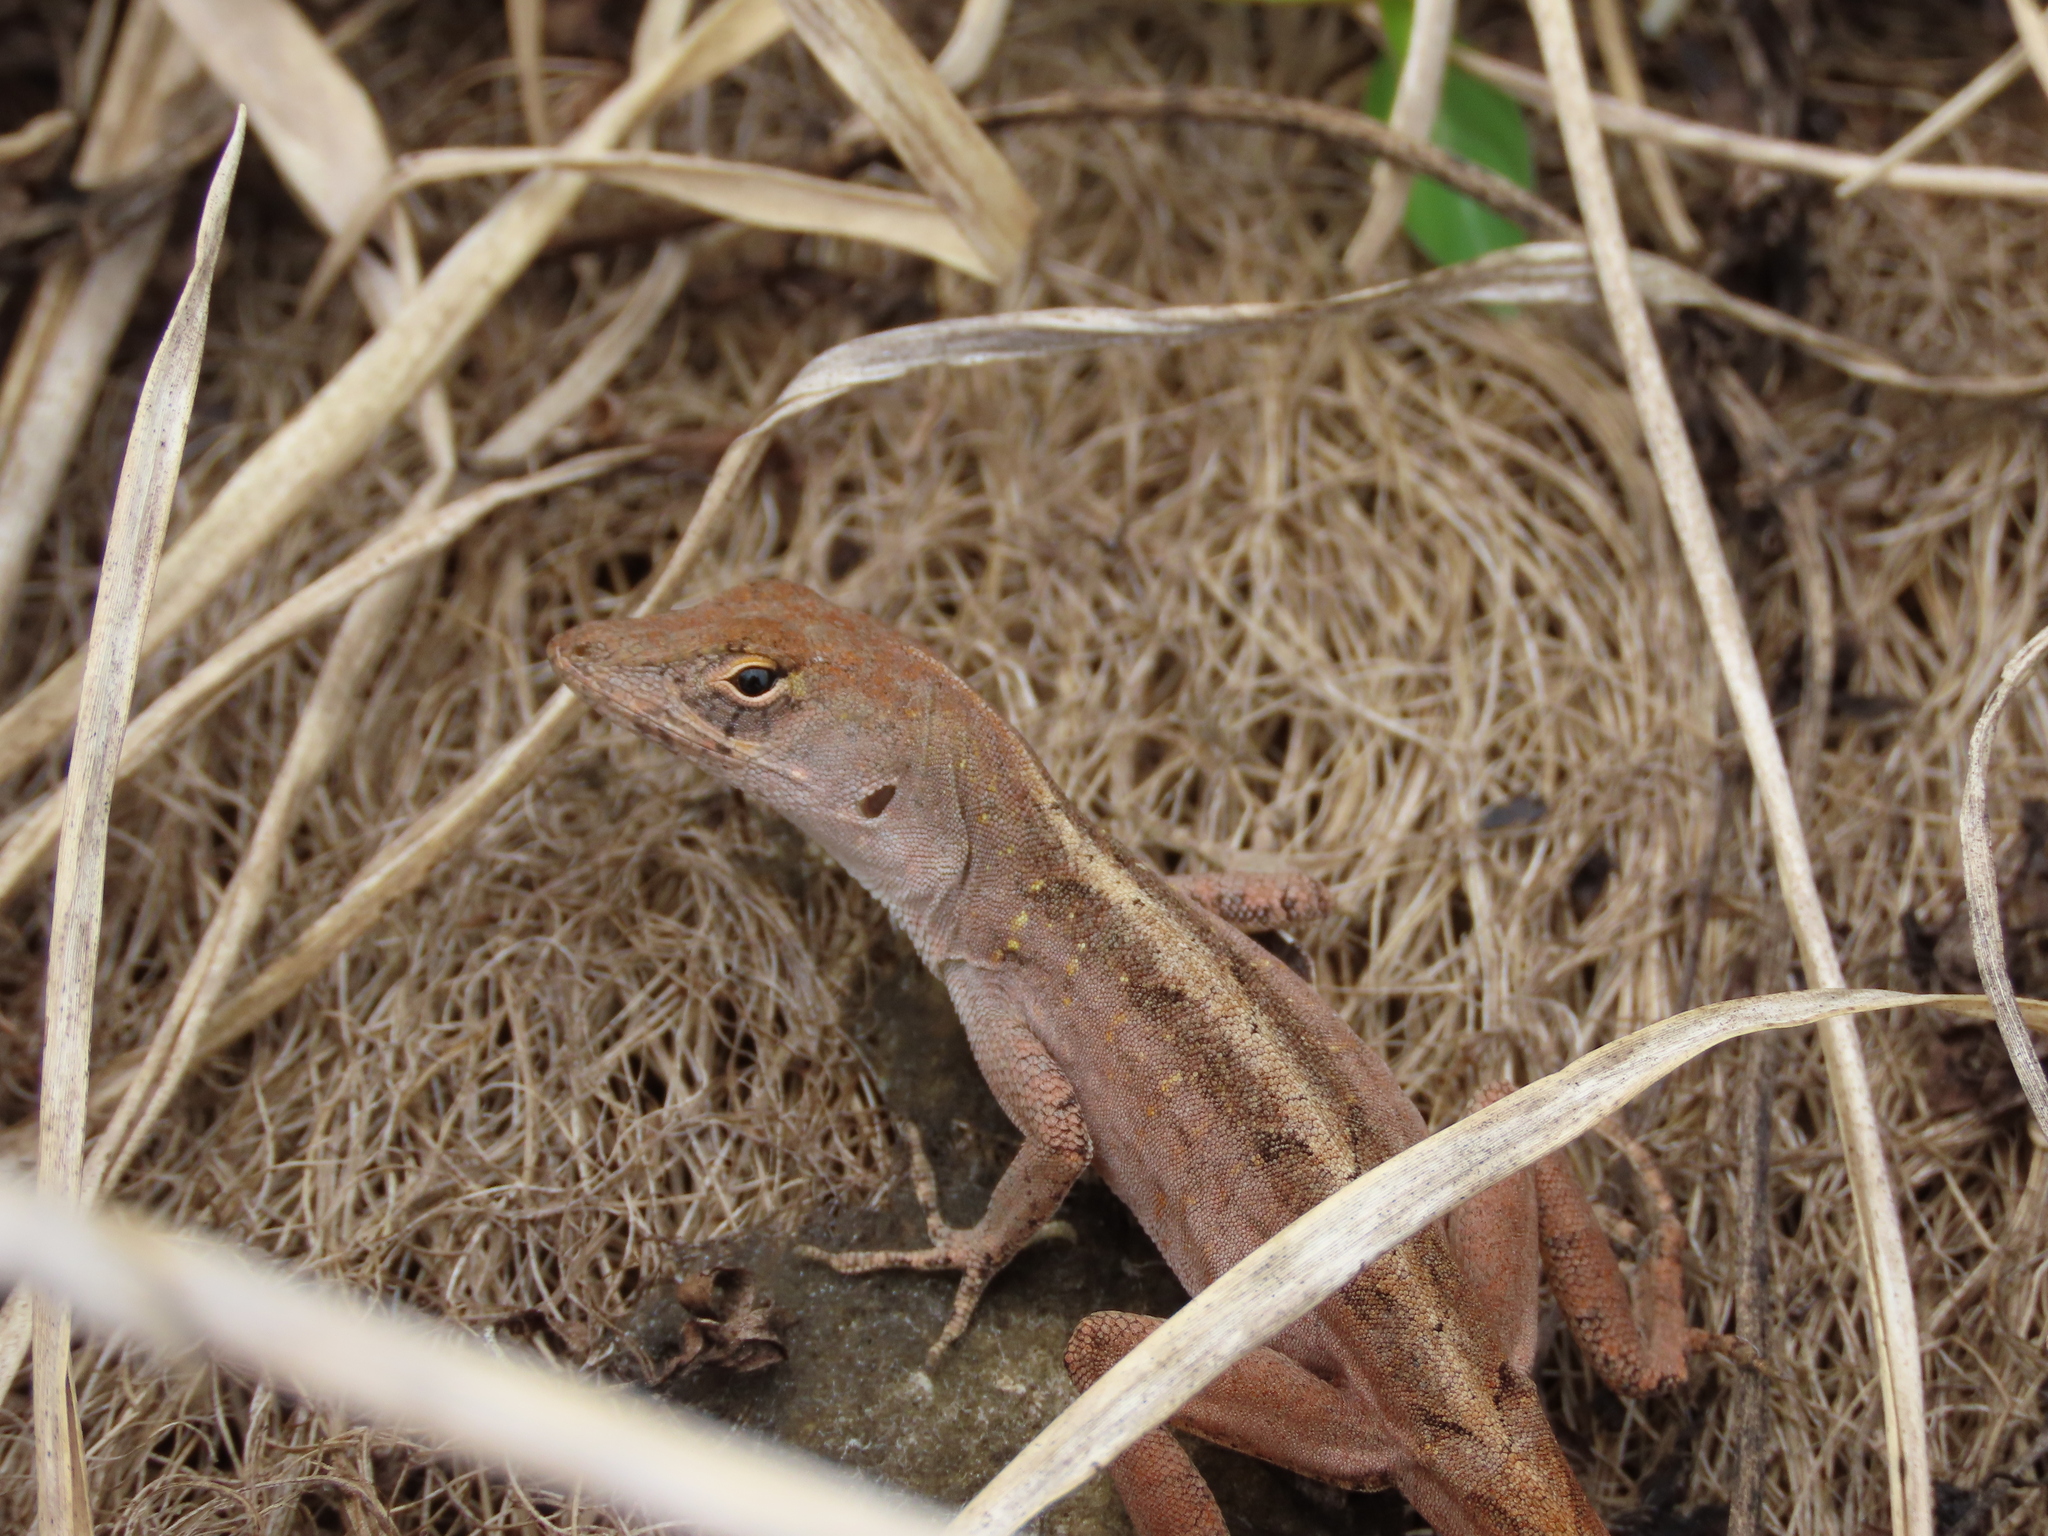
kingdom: Animalia
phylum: Chordata
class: Squamata
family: Dactyloidae
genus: Anolis
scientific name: Anolis sagrei
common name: Brown anole
